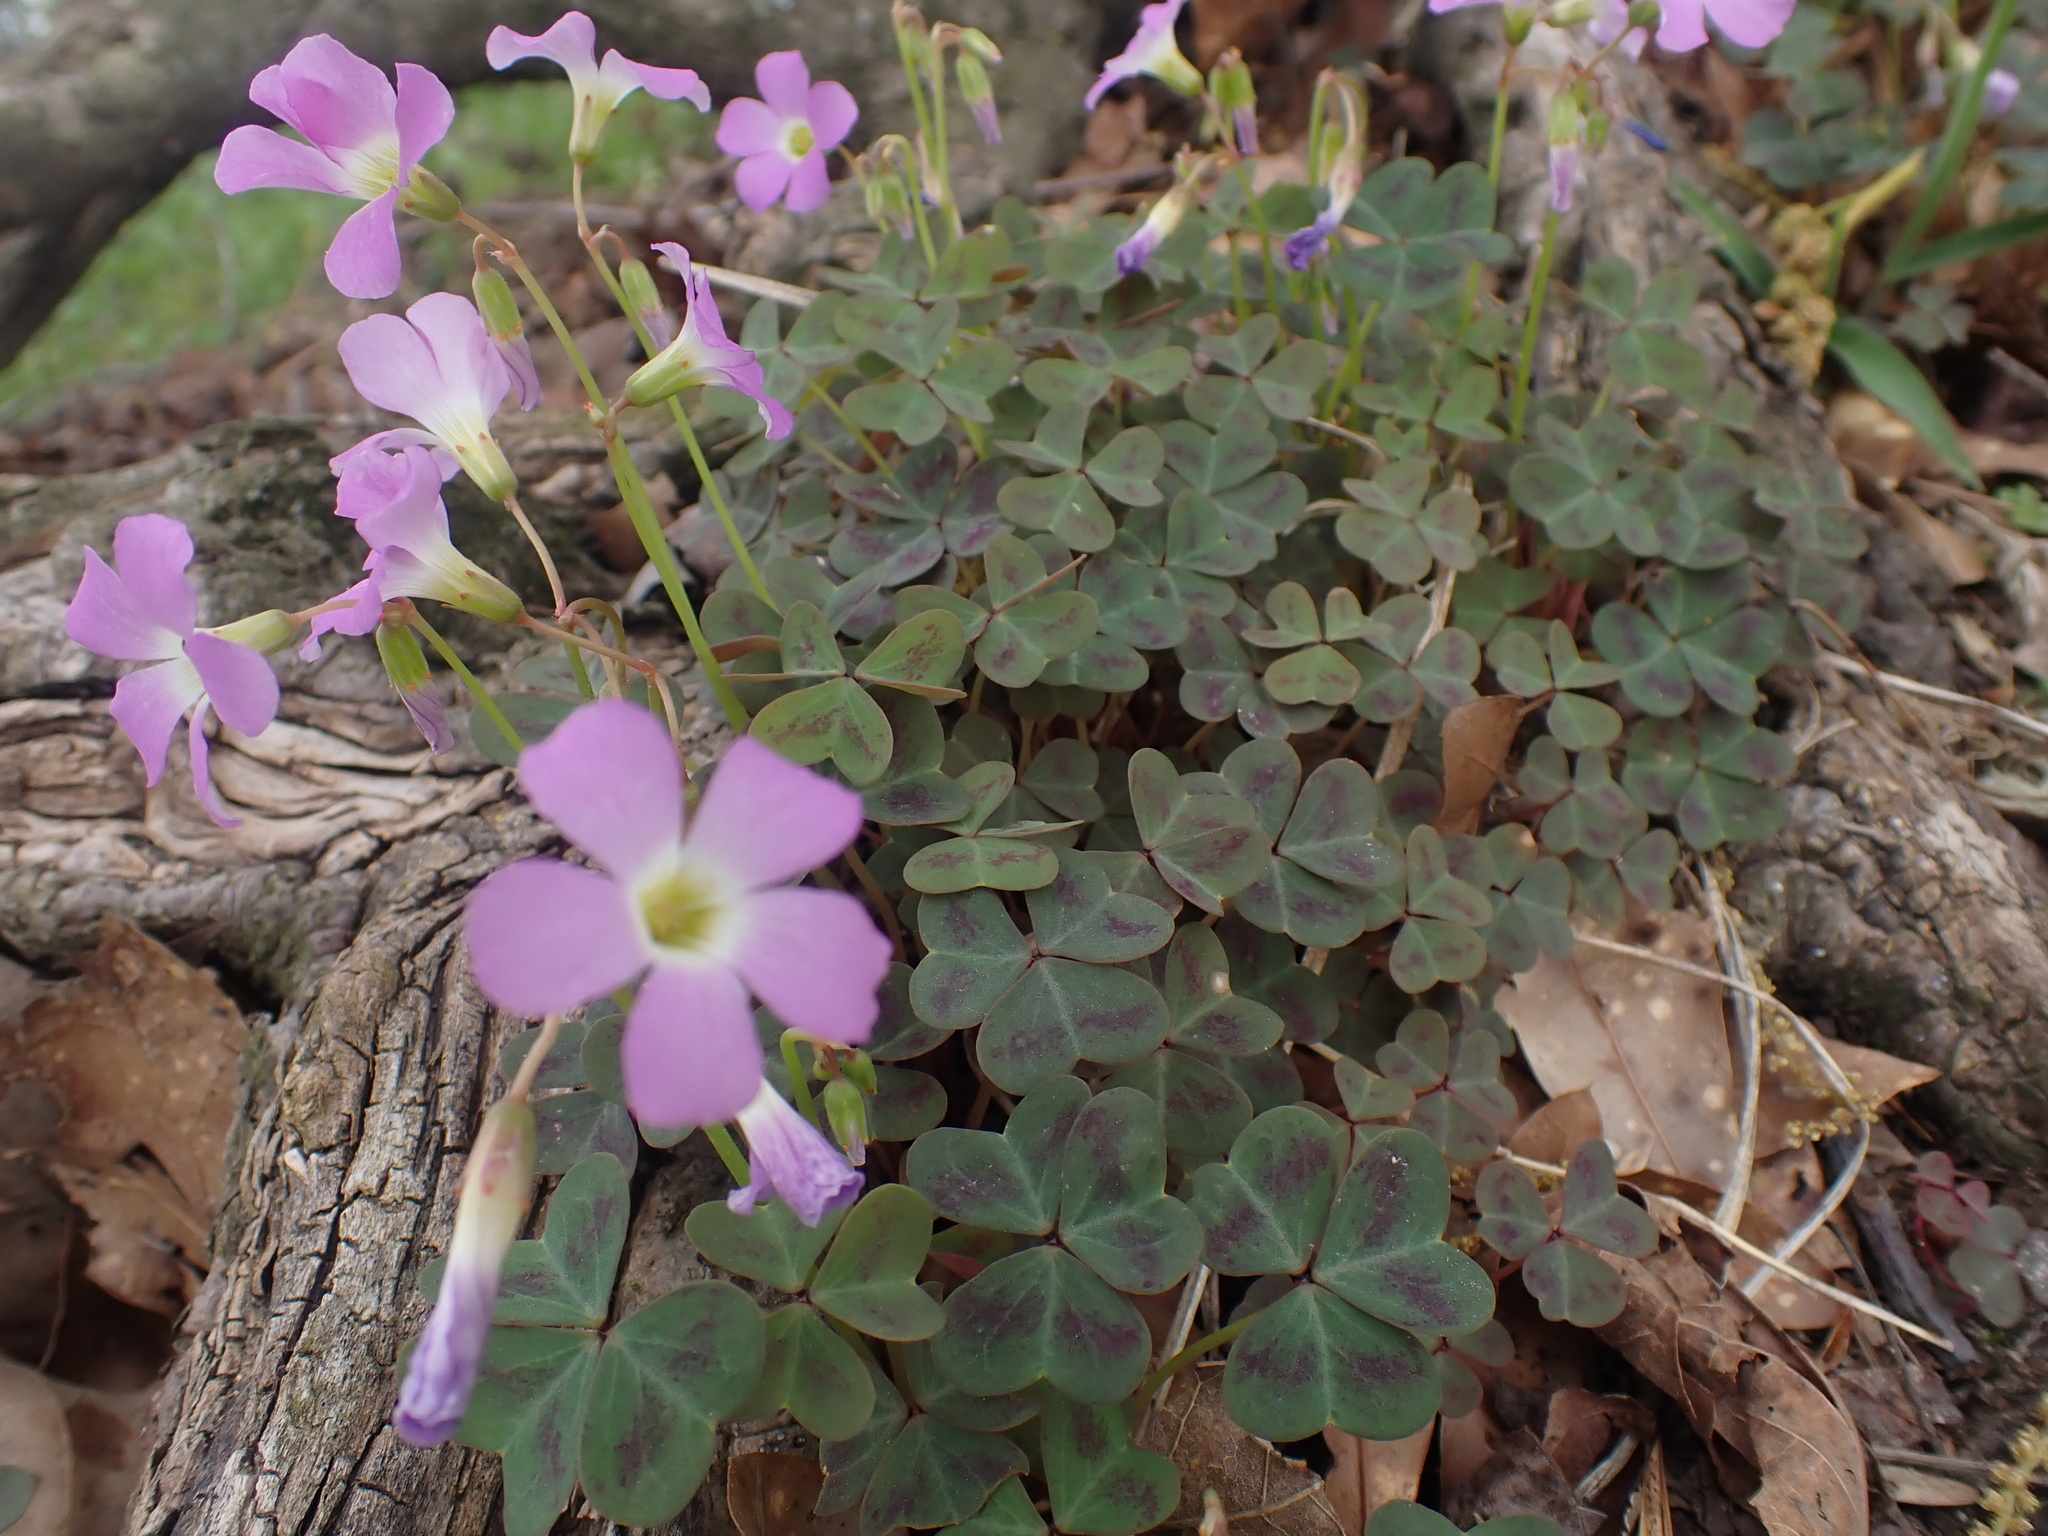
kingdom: Plantae
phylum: Tracheophyta
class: Magnoliopsida
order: Oxalidales
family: Oxalidaceae
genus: Oxalis
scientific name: Oxalis violacea
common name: Violet wood-sorrel
